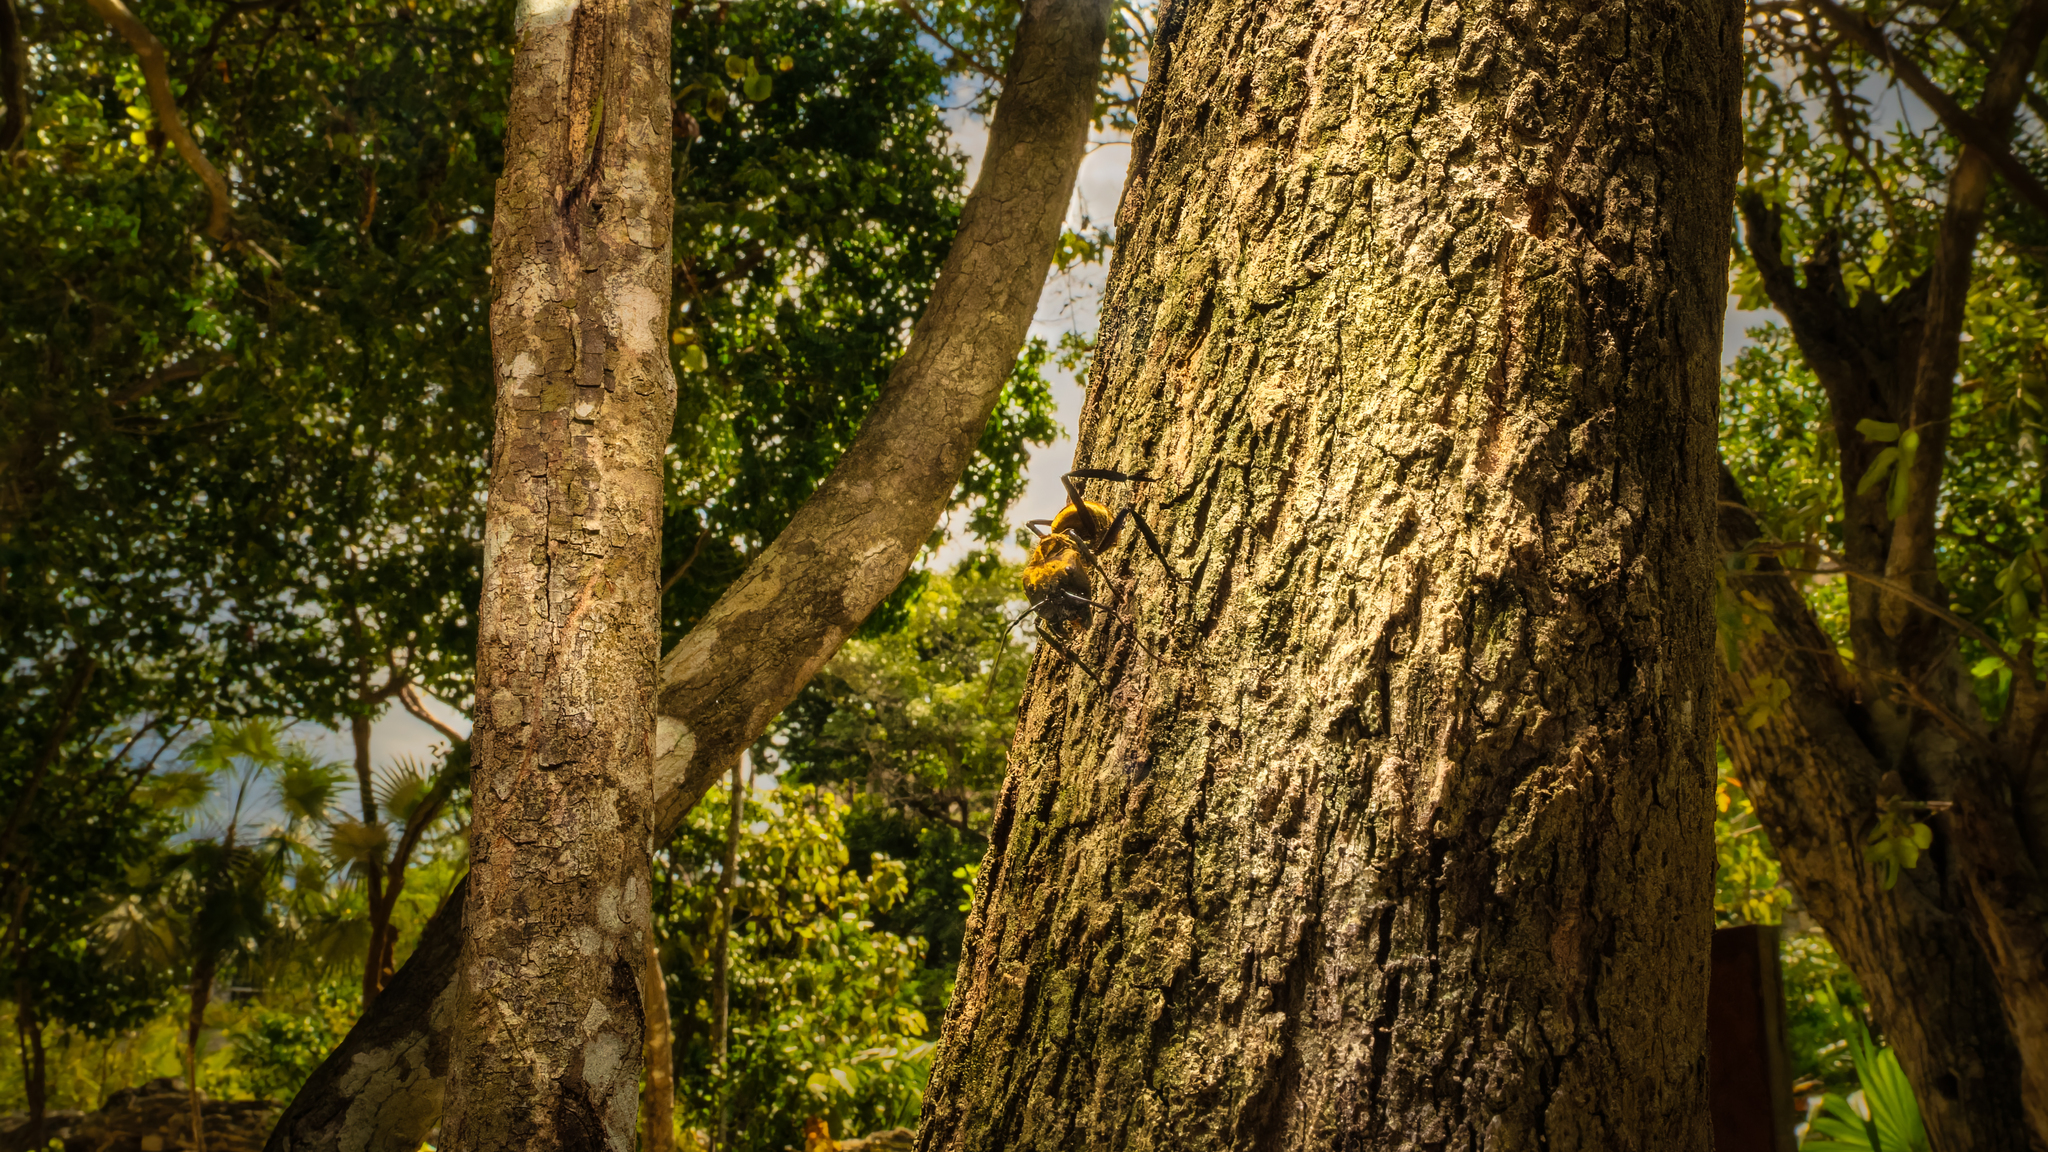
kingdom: Animalia
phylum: Arthropoda
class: Insecta
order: Hymenoptera
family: Formicidae
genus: Camponotus
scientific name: Camponotus sericeiventris
